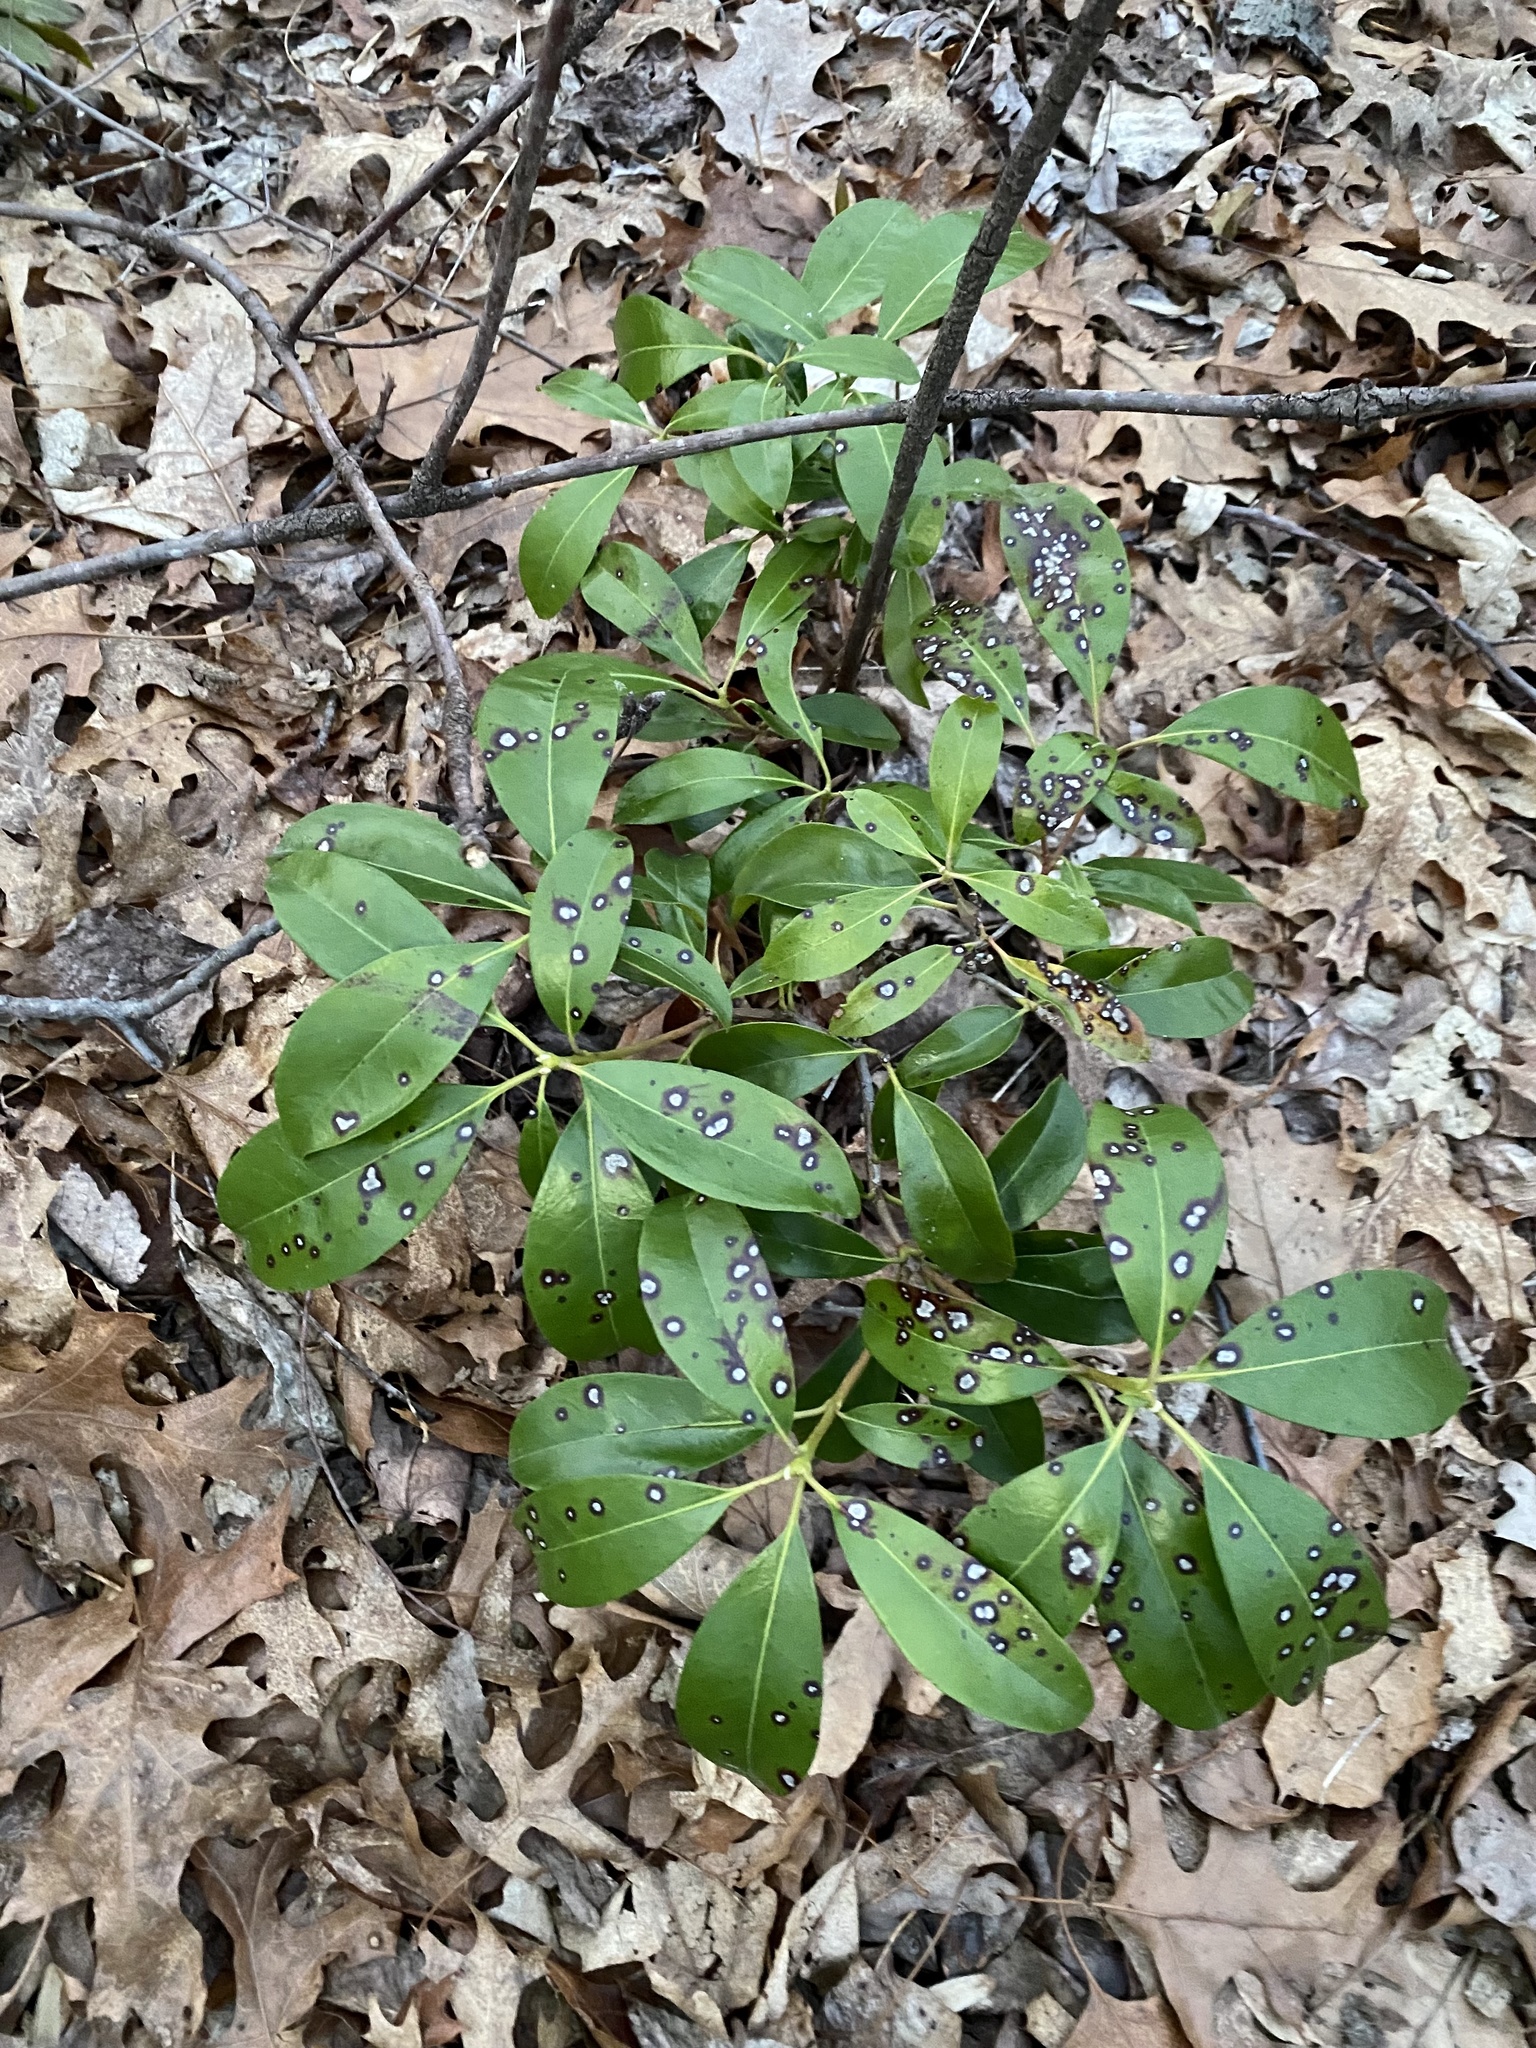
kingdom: Plantae
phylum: Tracheophyta
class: Magnoliopsida
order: Ericales
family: Ericaceae
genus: Kalmia
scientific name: Kalmia latifolia
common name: Mountain-laurel
